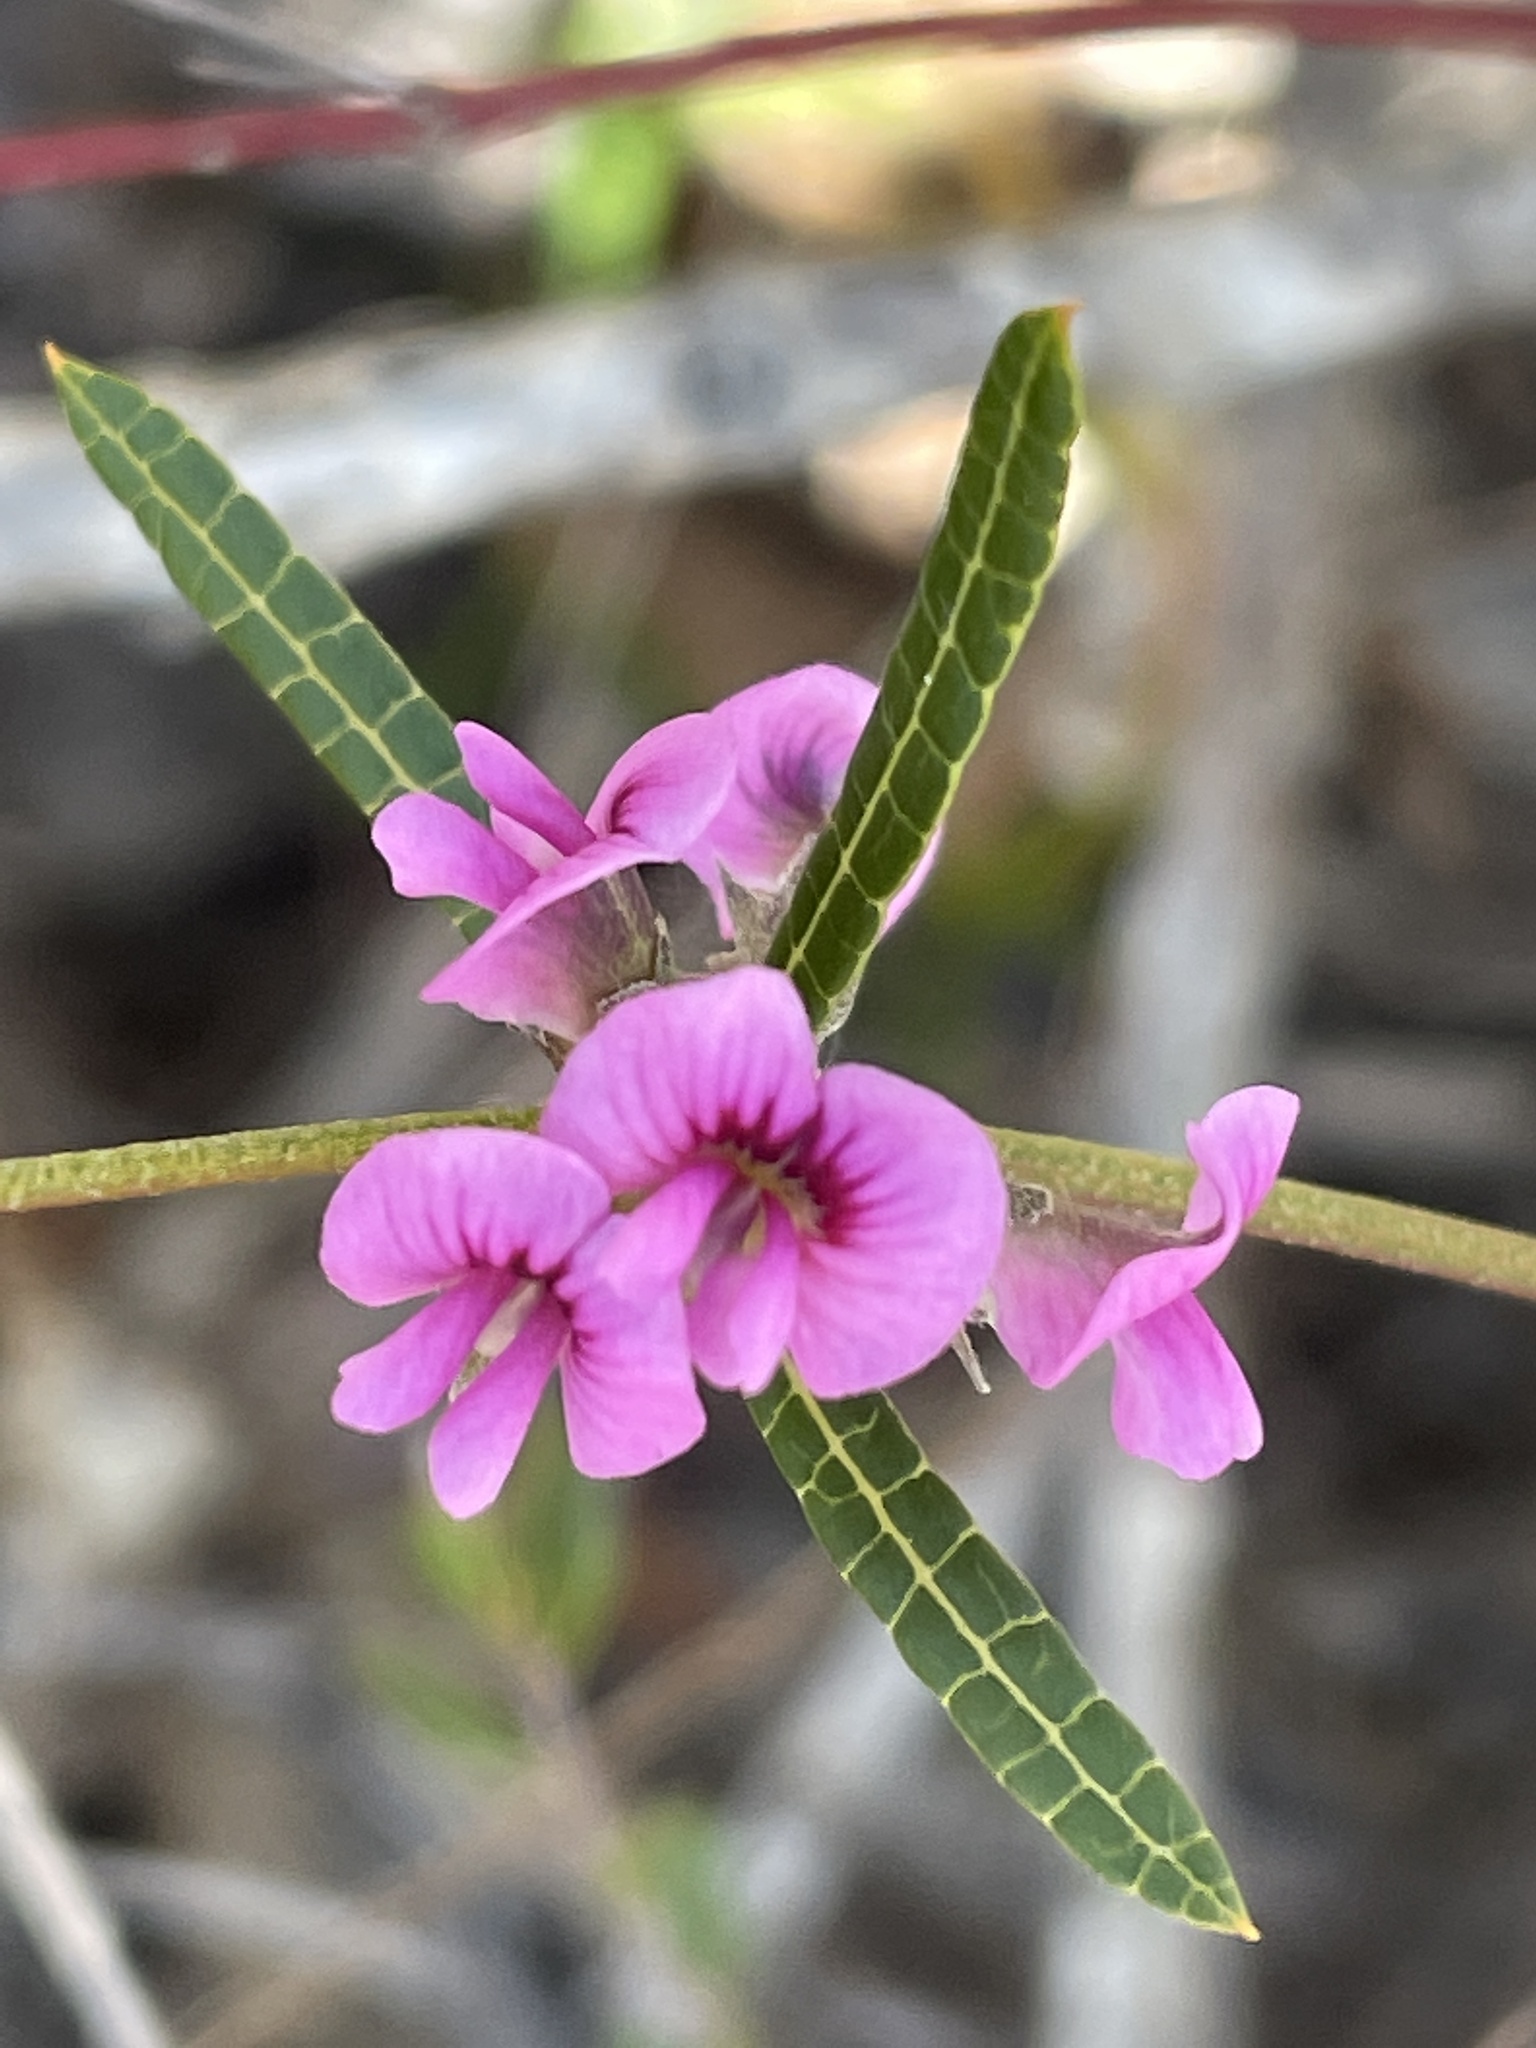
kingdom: Plantae
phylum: Tracheophyta
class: Magnoliopsida
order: Fabales
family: Fabaceae
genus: Mirbelia
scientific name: Mirbelia rubiifolia
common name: Heathy mirbelia
